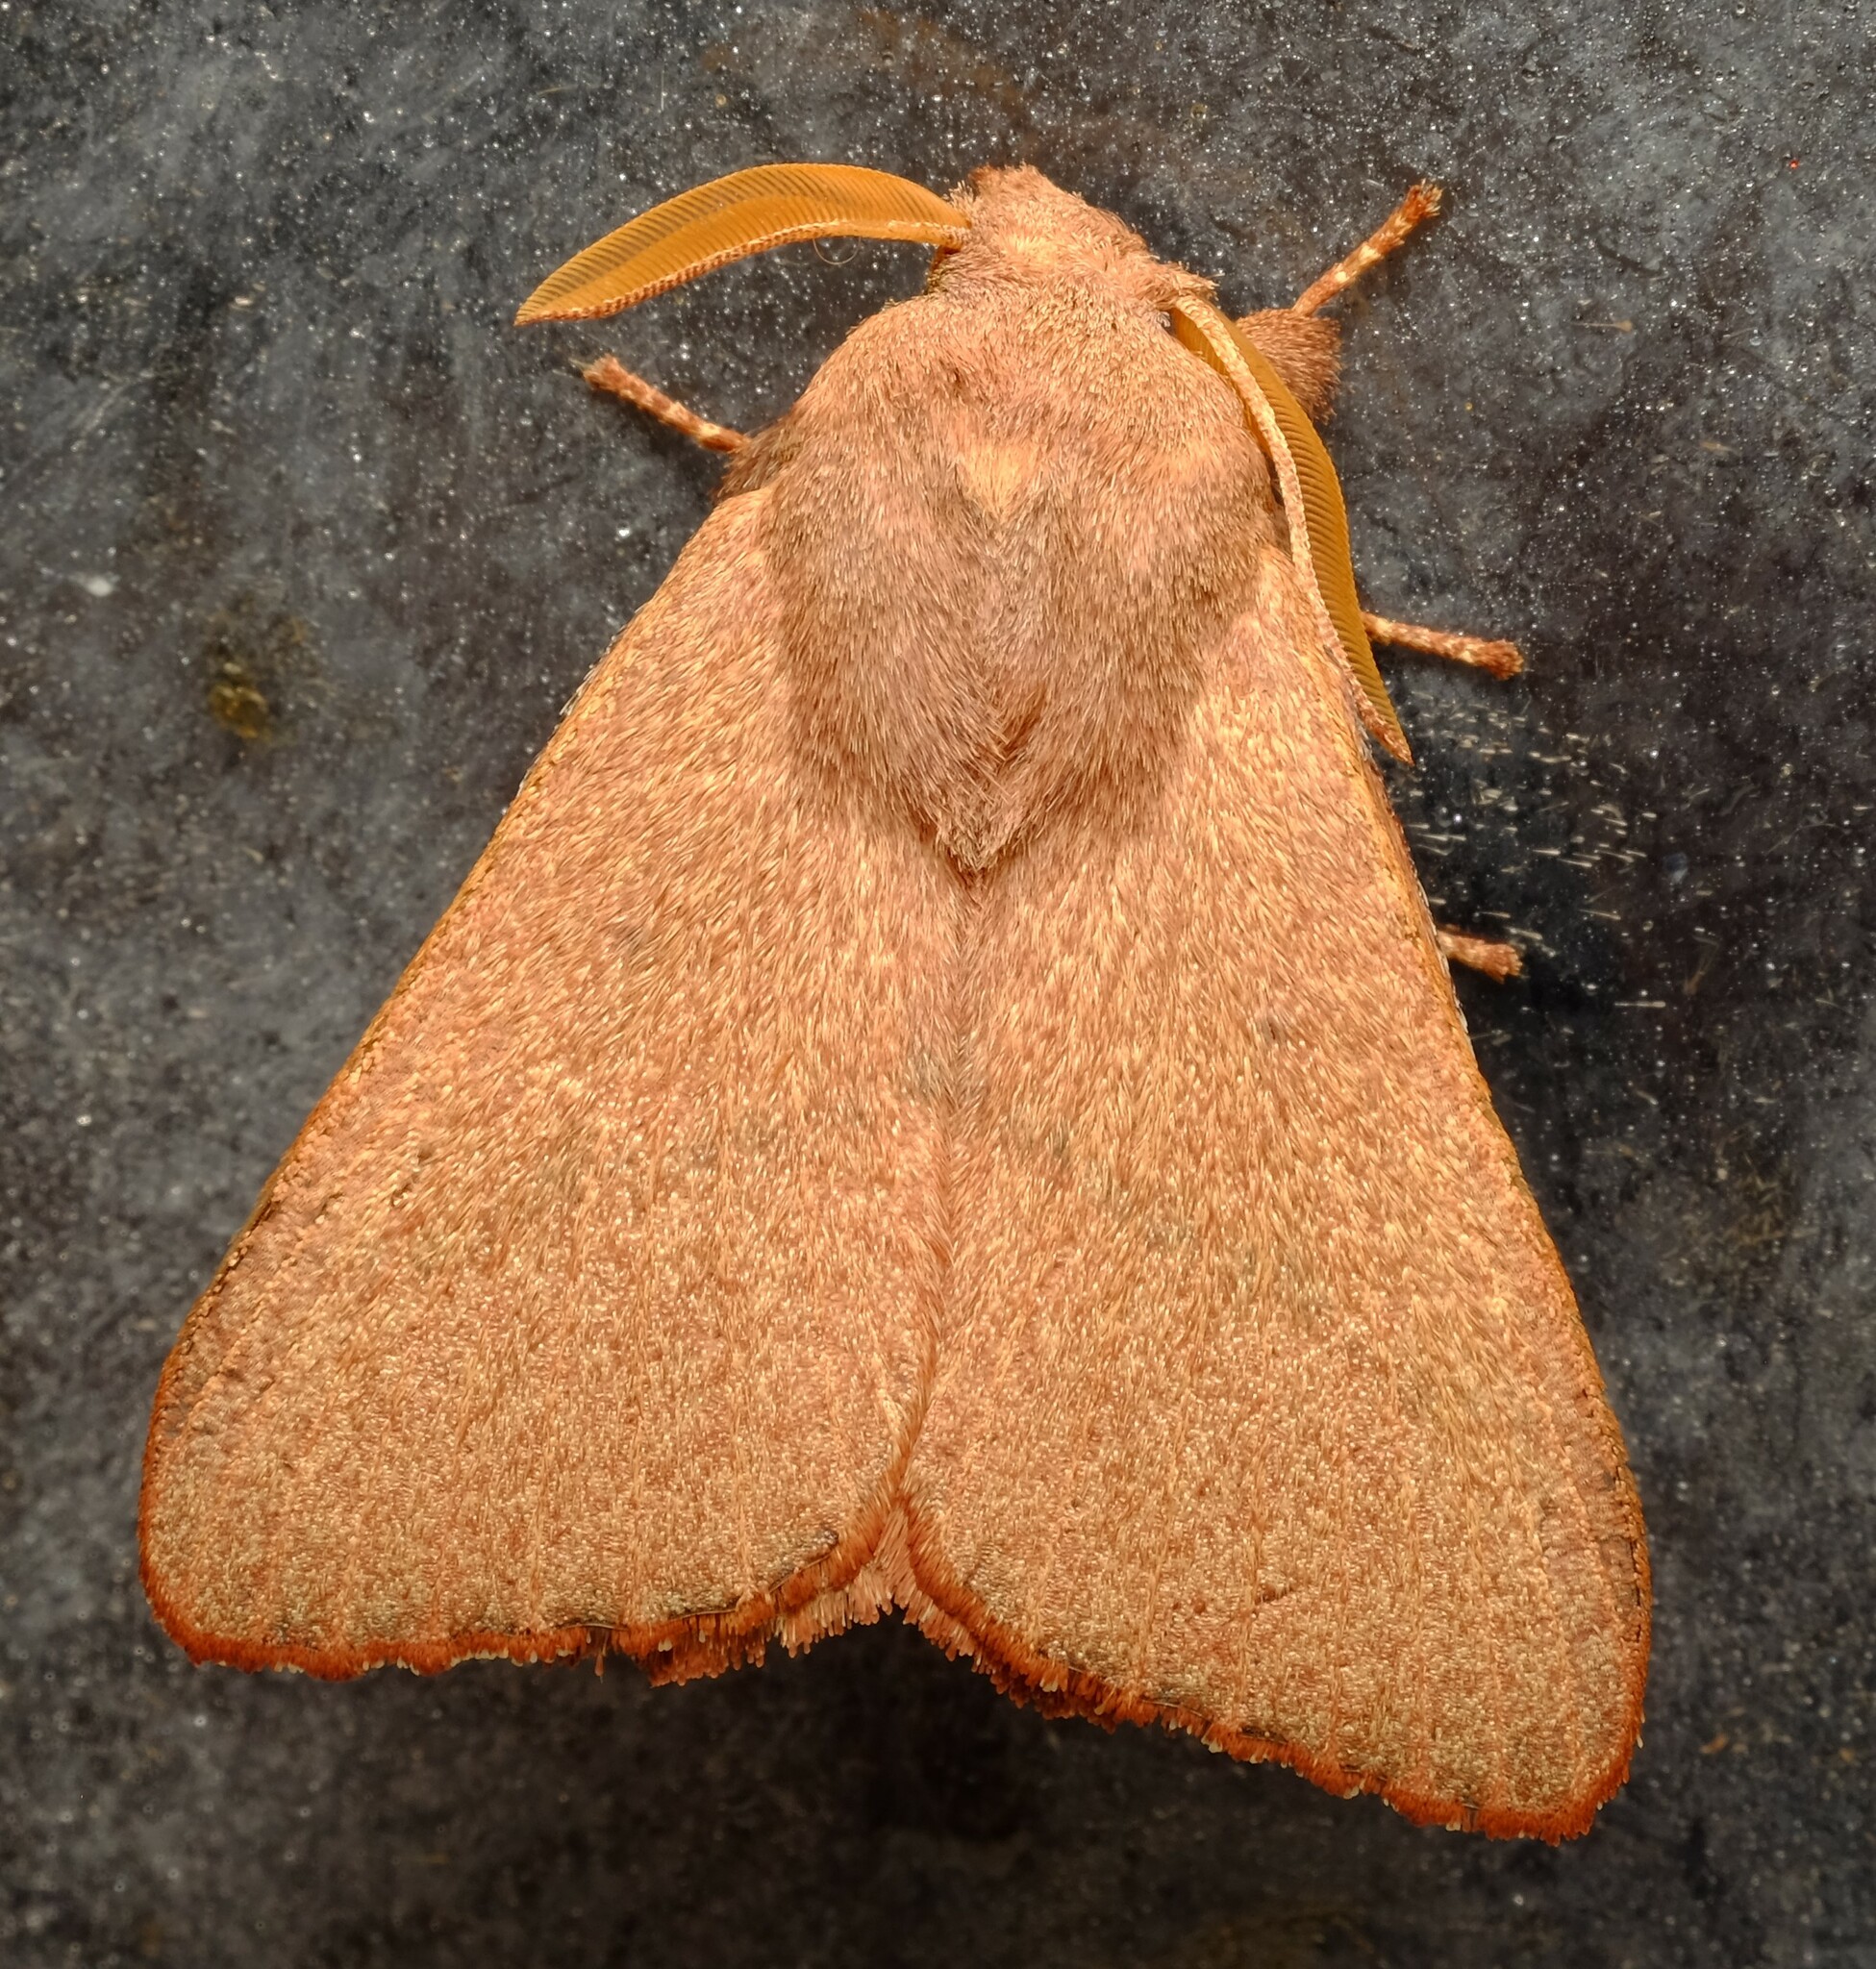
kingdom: Animalia
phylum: Arthropoda
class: Insecta
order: Lepidoptera
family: Lasiocampidae
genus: Pararguda
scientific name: Pararguda
